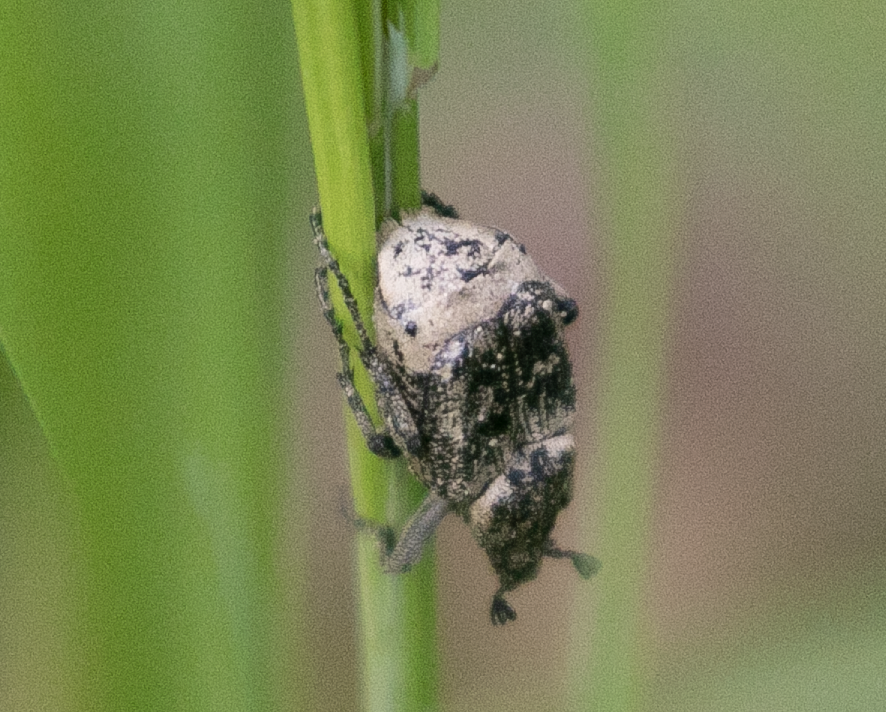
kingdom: Animalia
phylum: Arthropoda
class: Insecta
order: Coleoptera
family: Scarabaeidae
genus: Valgus
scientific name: Valgus hemipterus
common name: Bug flower chafer
